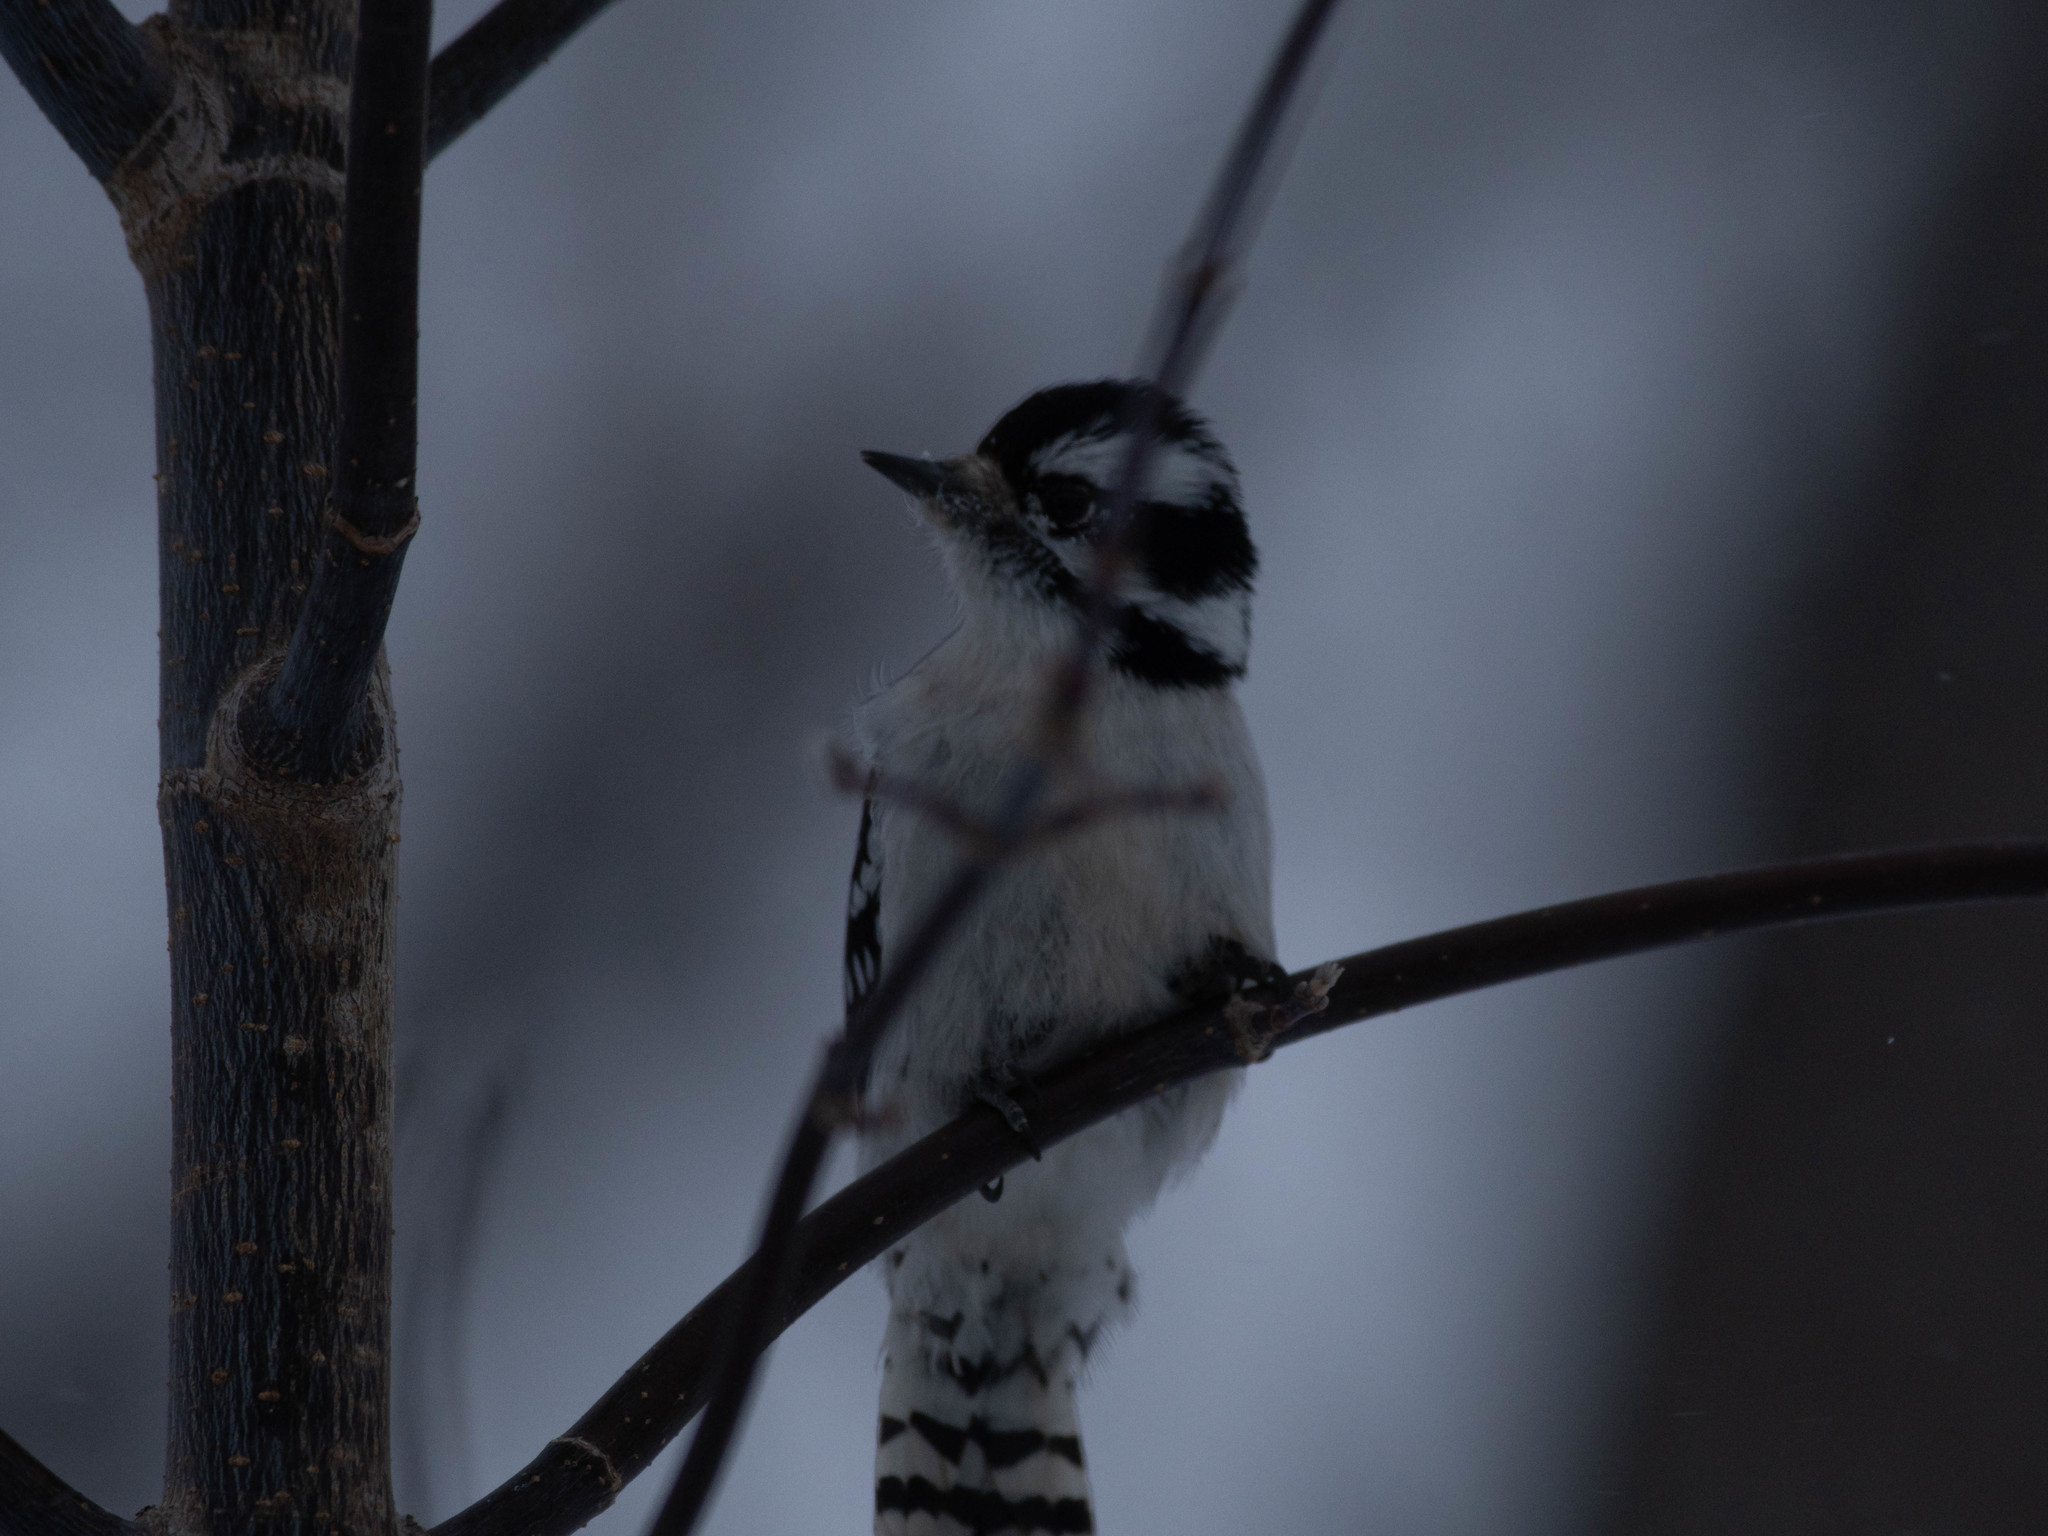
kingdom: Animalia
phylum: Chordata
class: Aves
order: Piciformes
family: Picidae
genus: Dryobates
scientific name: Dryobates pubescens
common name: Downy woodpecker
